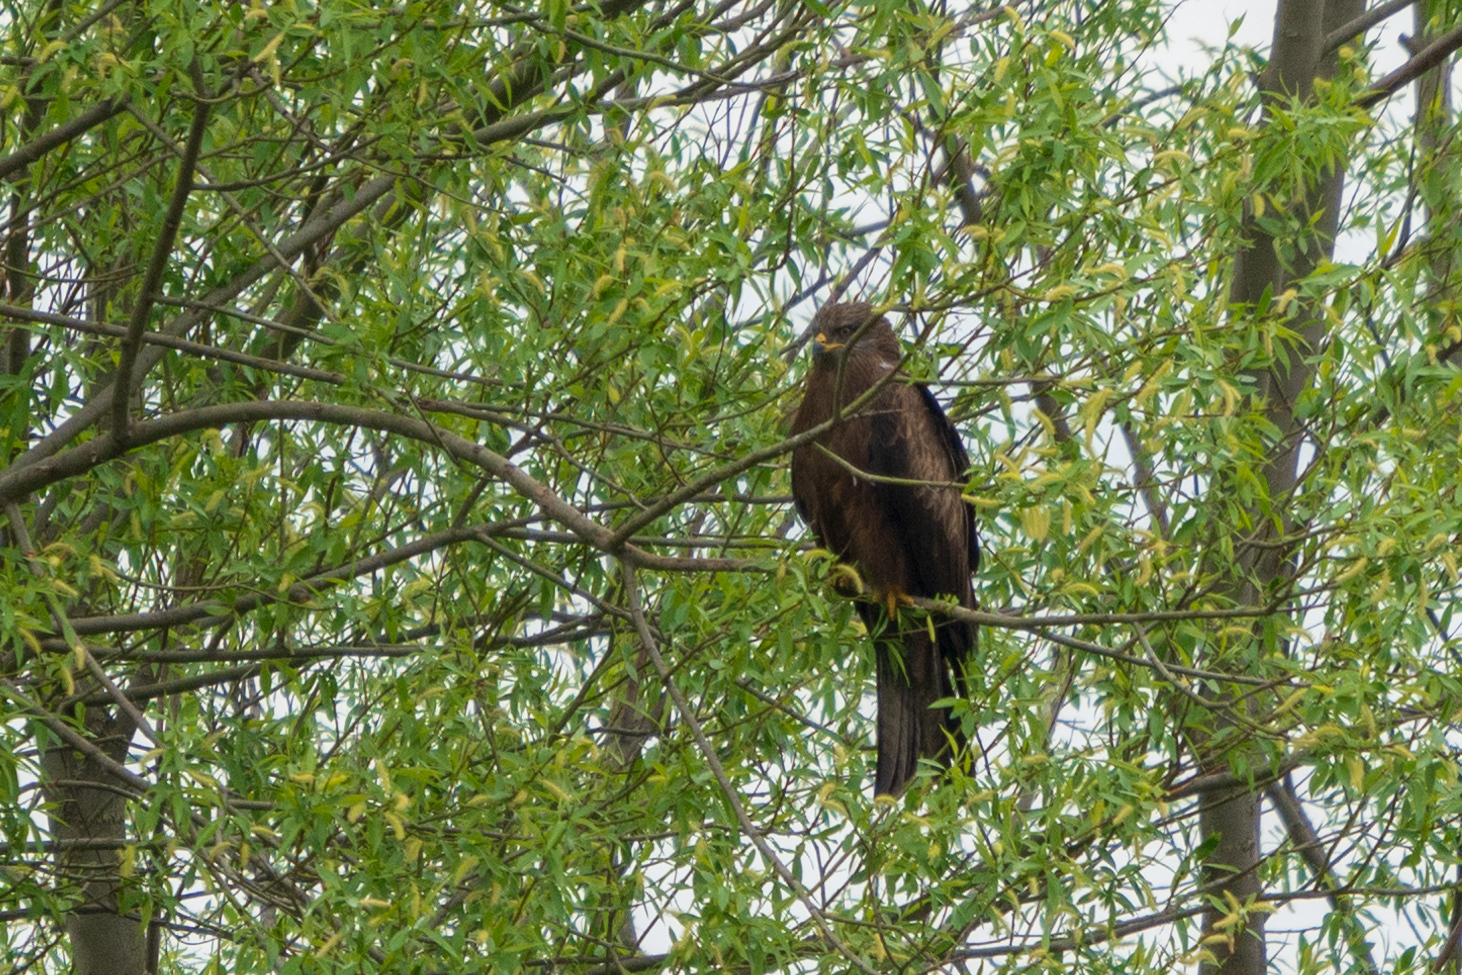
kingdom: Animalia
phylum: Chordata
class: Aves
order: Accipitriformes
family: Accipitridae
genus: Milvus
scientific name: Milvus migrans
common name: Black kite
